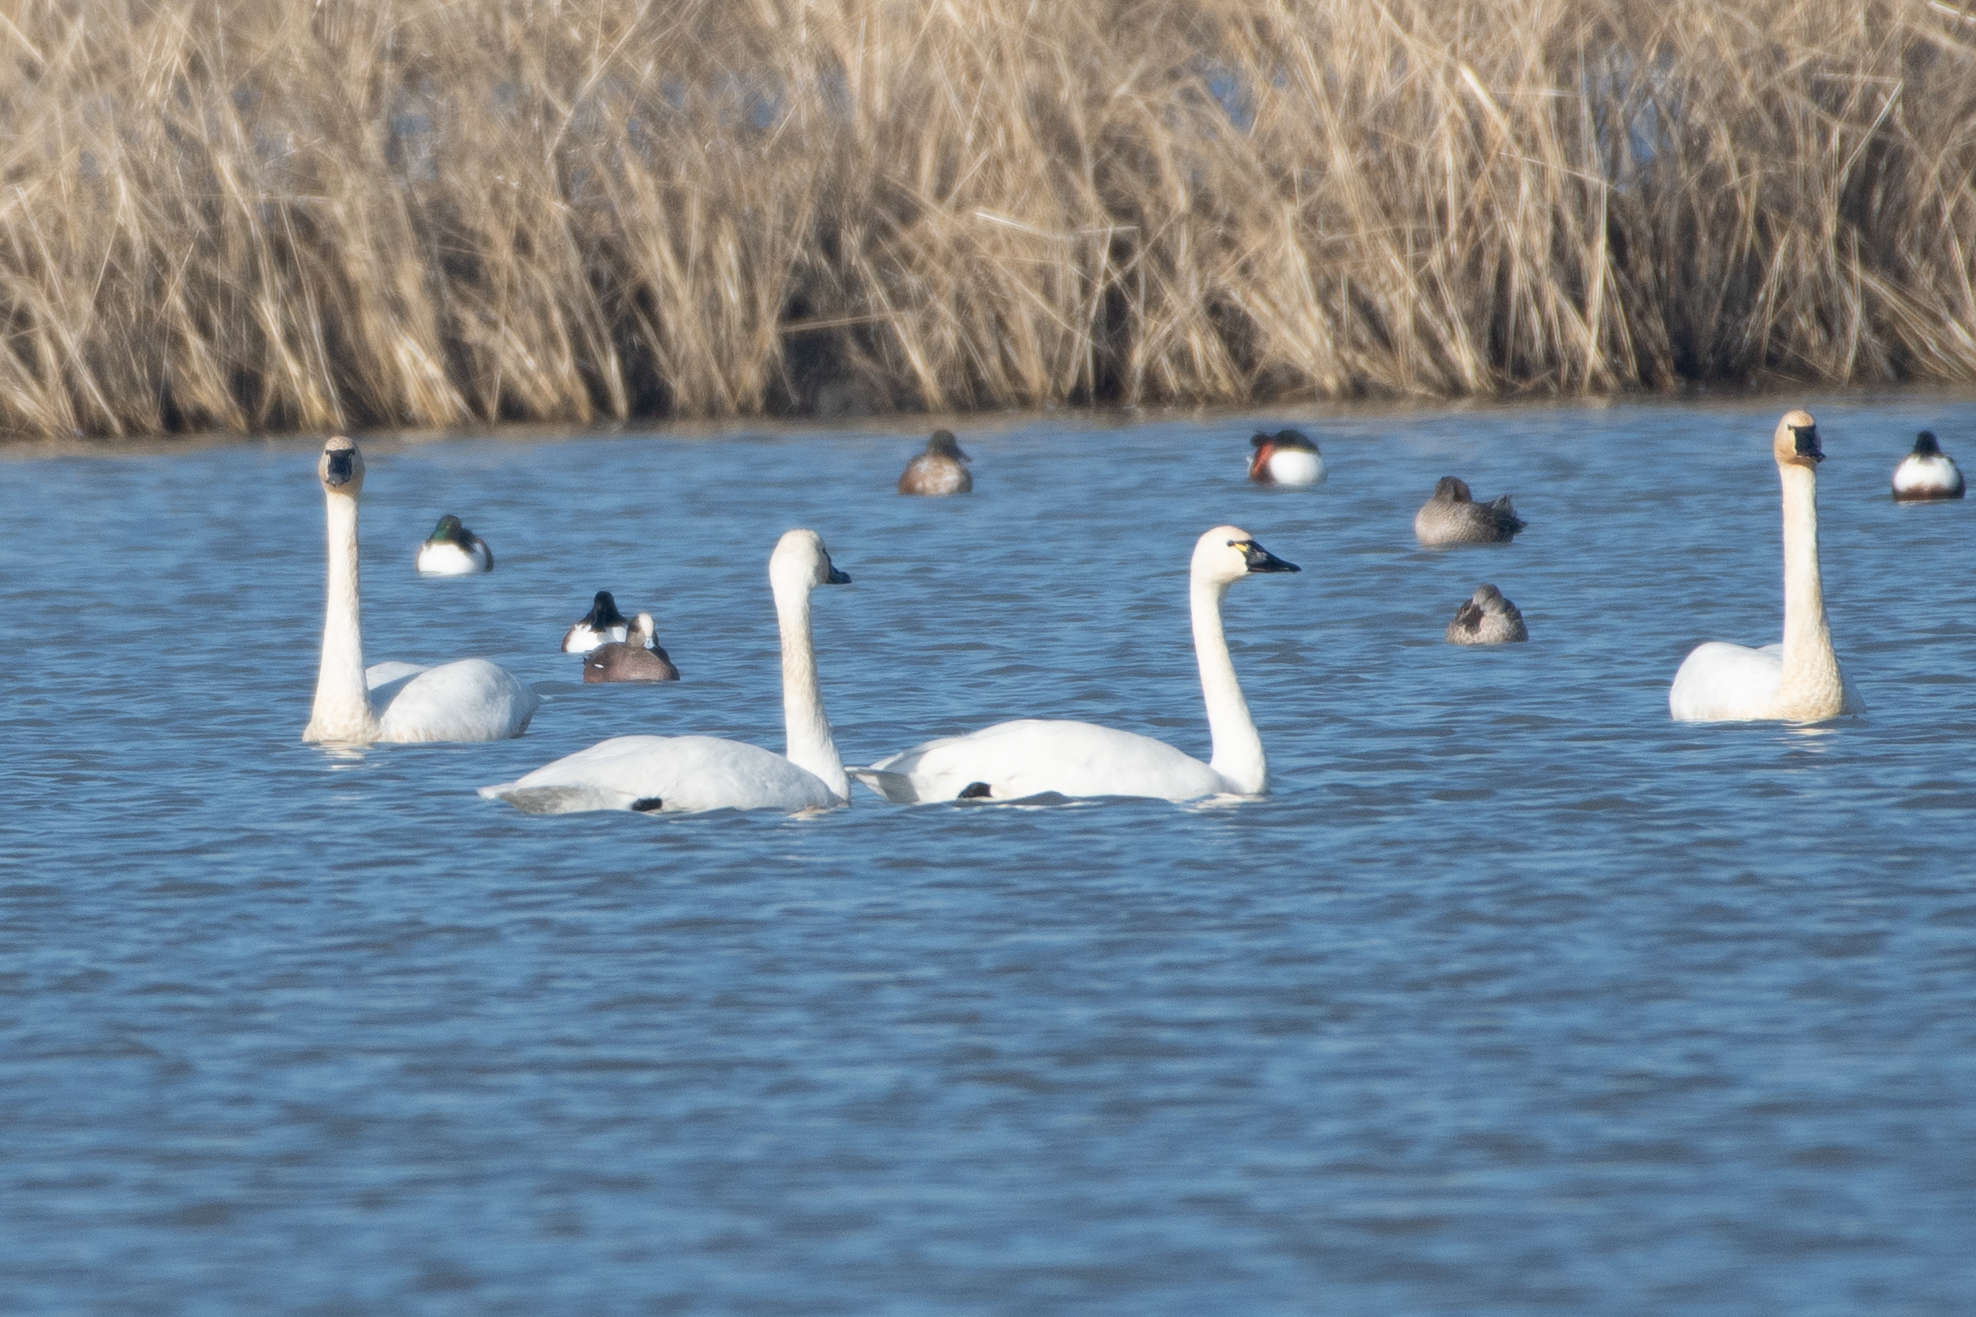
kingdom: Animalia
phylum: Chordata
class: Aves
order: Anseriformes
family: Anatidae
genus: Cygnus
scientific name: Cygnus columbianus
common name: Tundra swan
